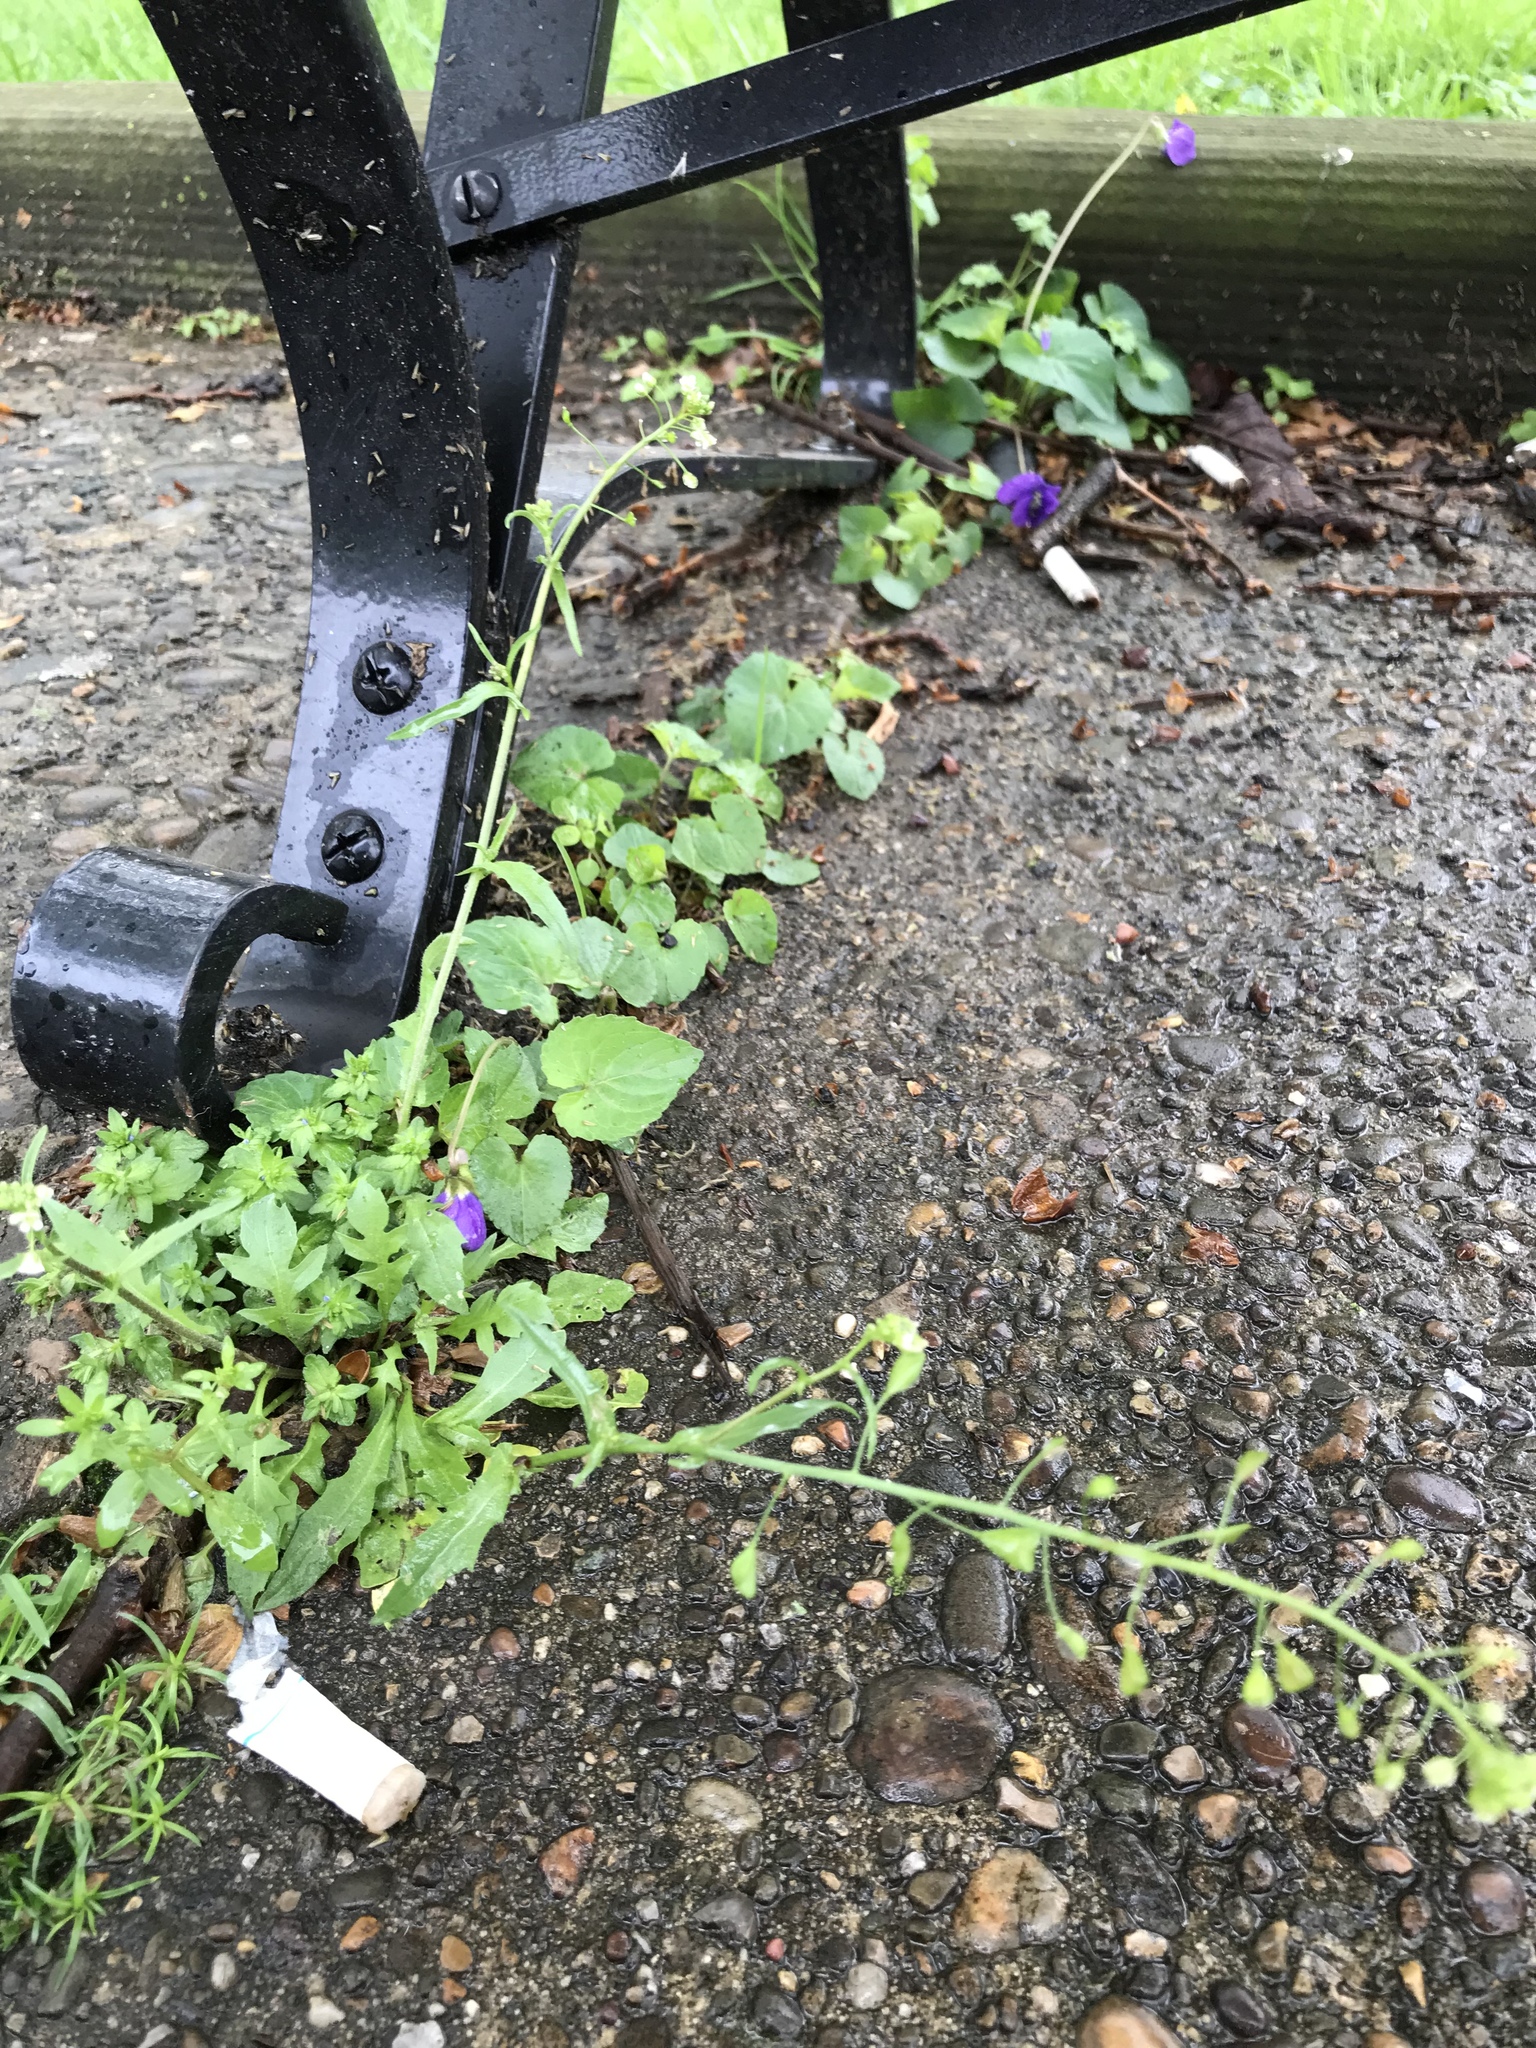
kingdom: Plantae
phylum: Tracheophyta
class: Magnoliopsida
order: Brassicales
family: Brassicaceae
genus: Capsella
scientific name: Capsella bursa-pastoris
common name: Shepherd's purse
